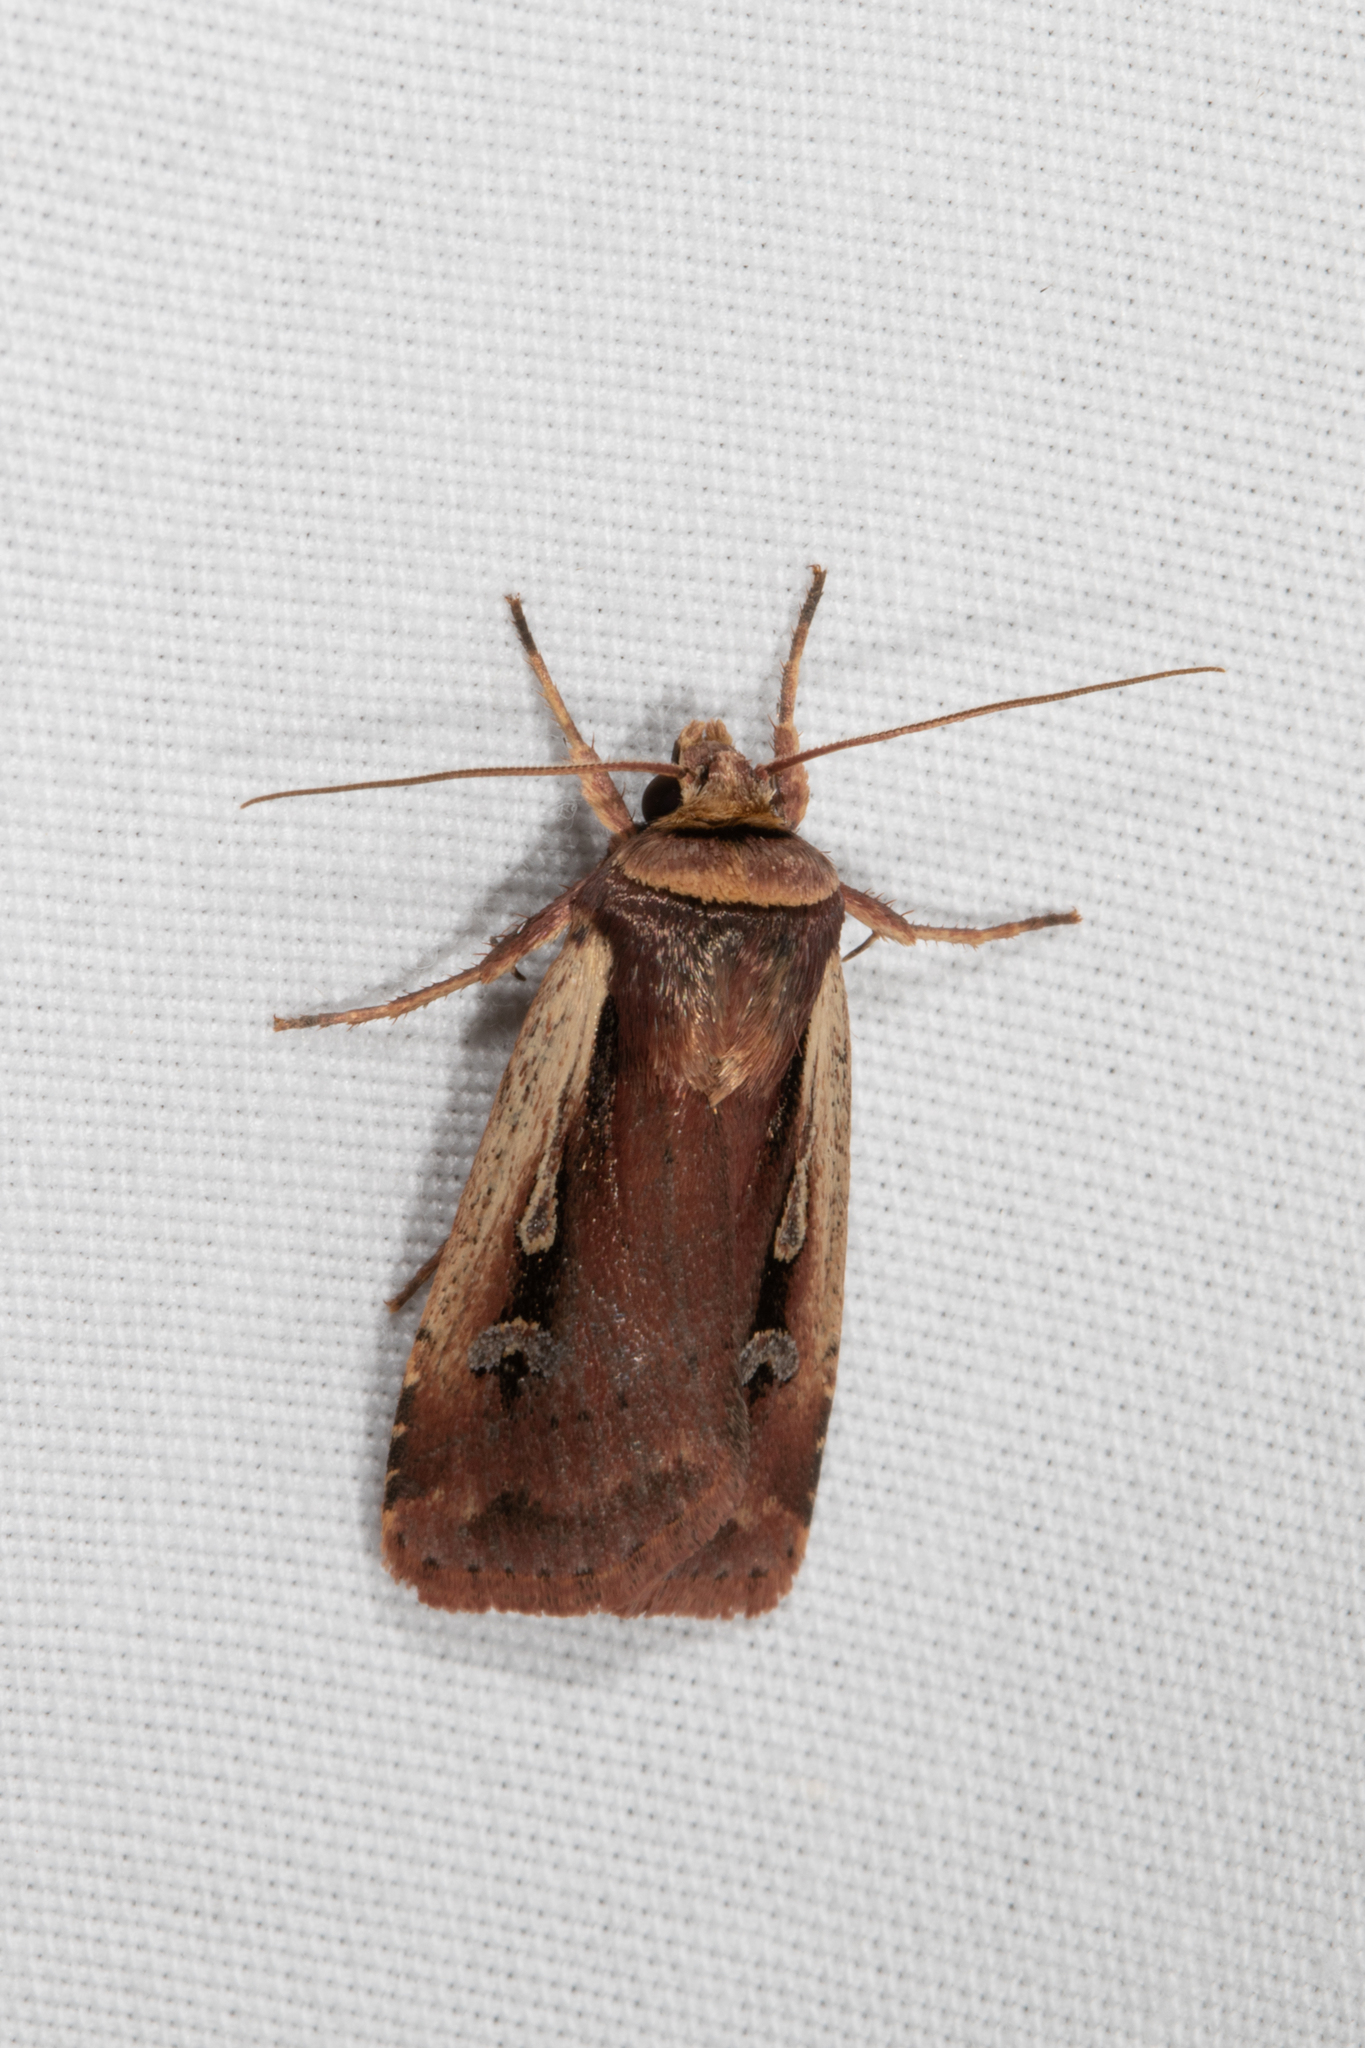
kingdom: Animalia
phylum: Arthropoda
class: Insecta
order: Lepidoptera
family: Noctuidae
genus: Ochropleura
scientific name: Ochropleura implecta
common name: Flame-shouldered dart
